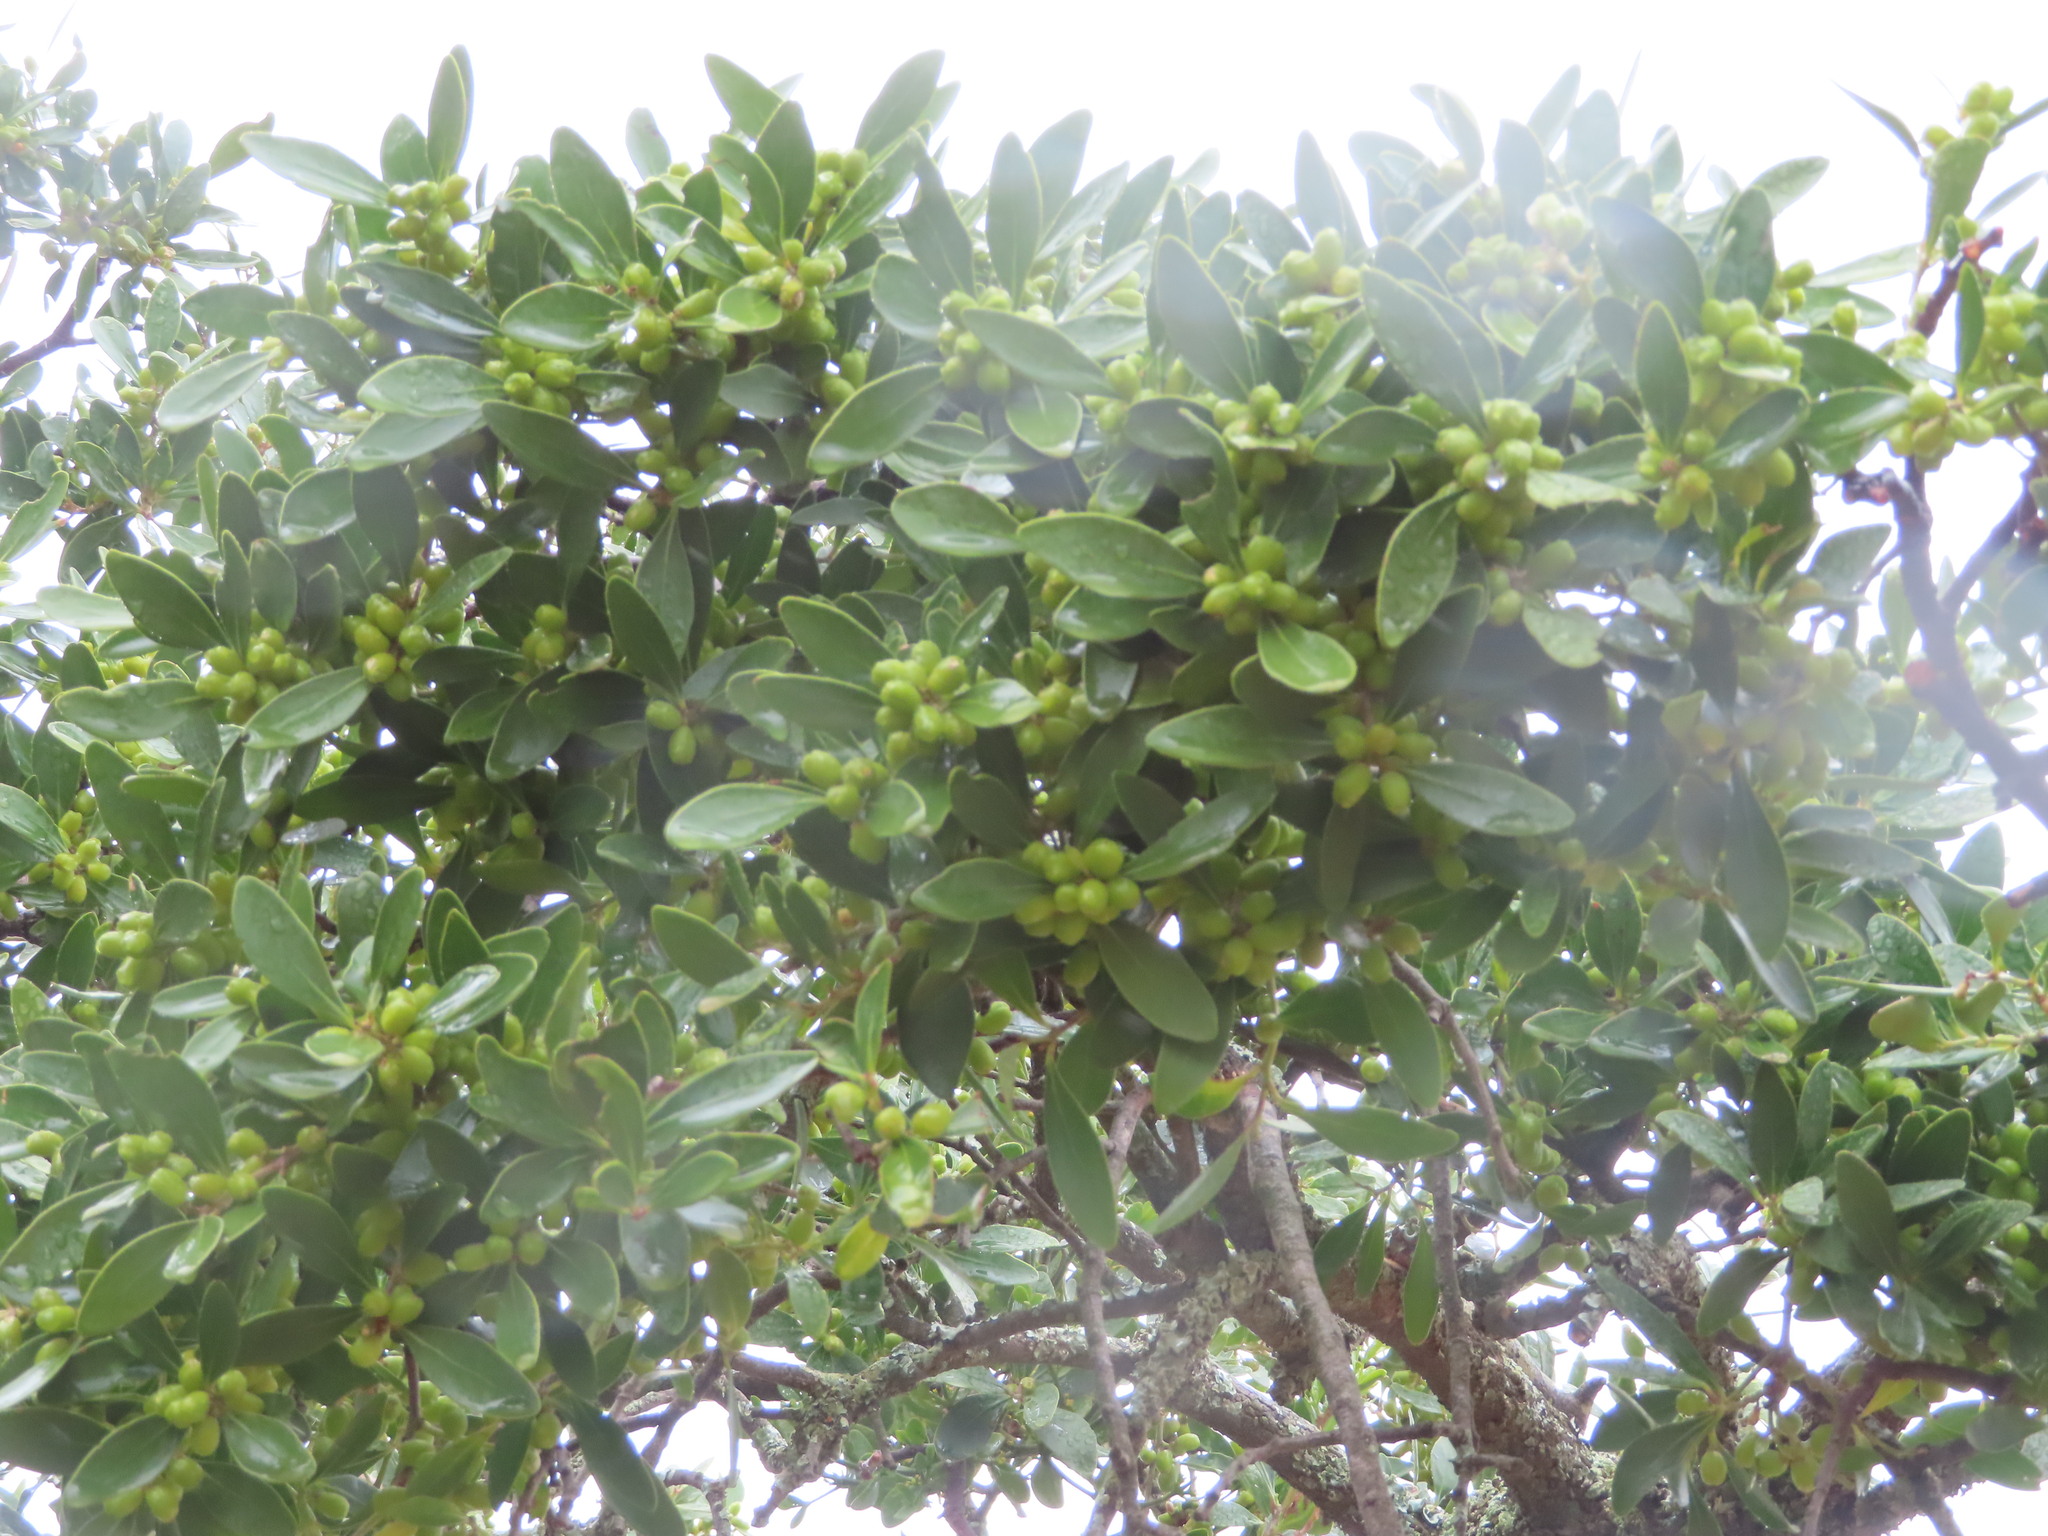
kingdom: Plantae
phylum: Tracheophyta
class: Magnoliopsida
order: Celastrales
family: Celastraceae
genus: Gymnosporia
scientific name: Gymnosporia laurina
